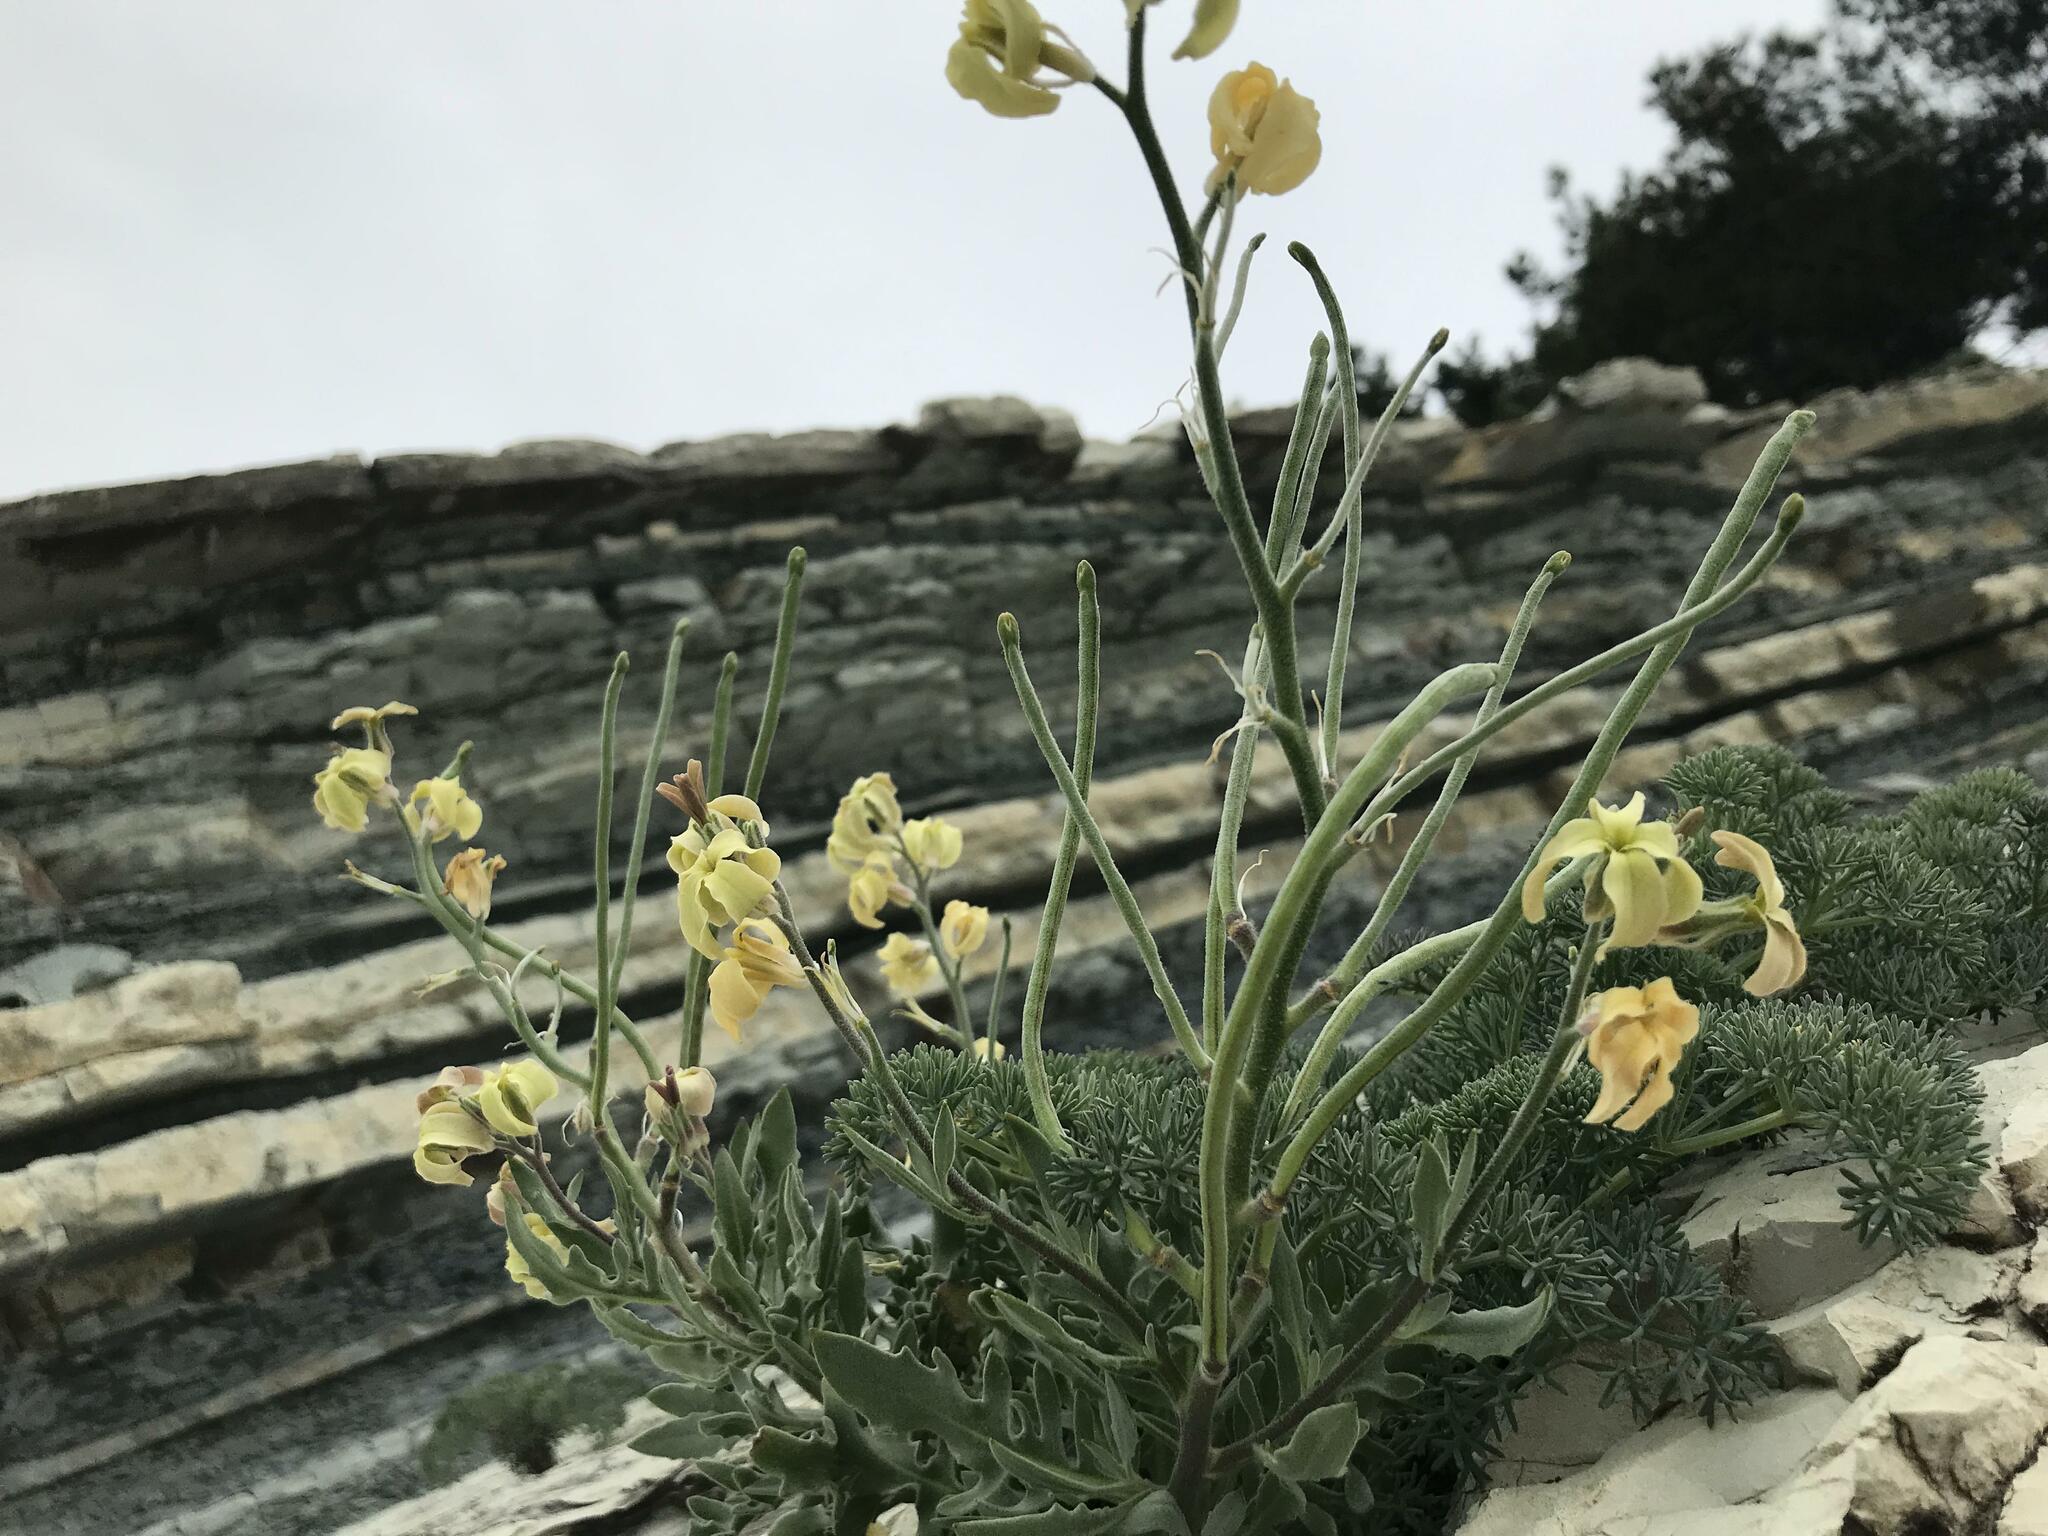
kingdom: Plantae
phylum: Tracheophyta
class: Magnoliopsida
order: Brassicales
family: Brassicaceae
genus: Matthiola
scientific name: Matthiola odoratissima
